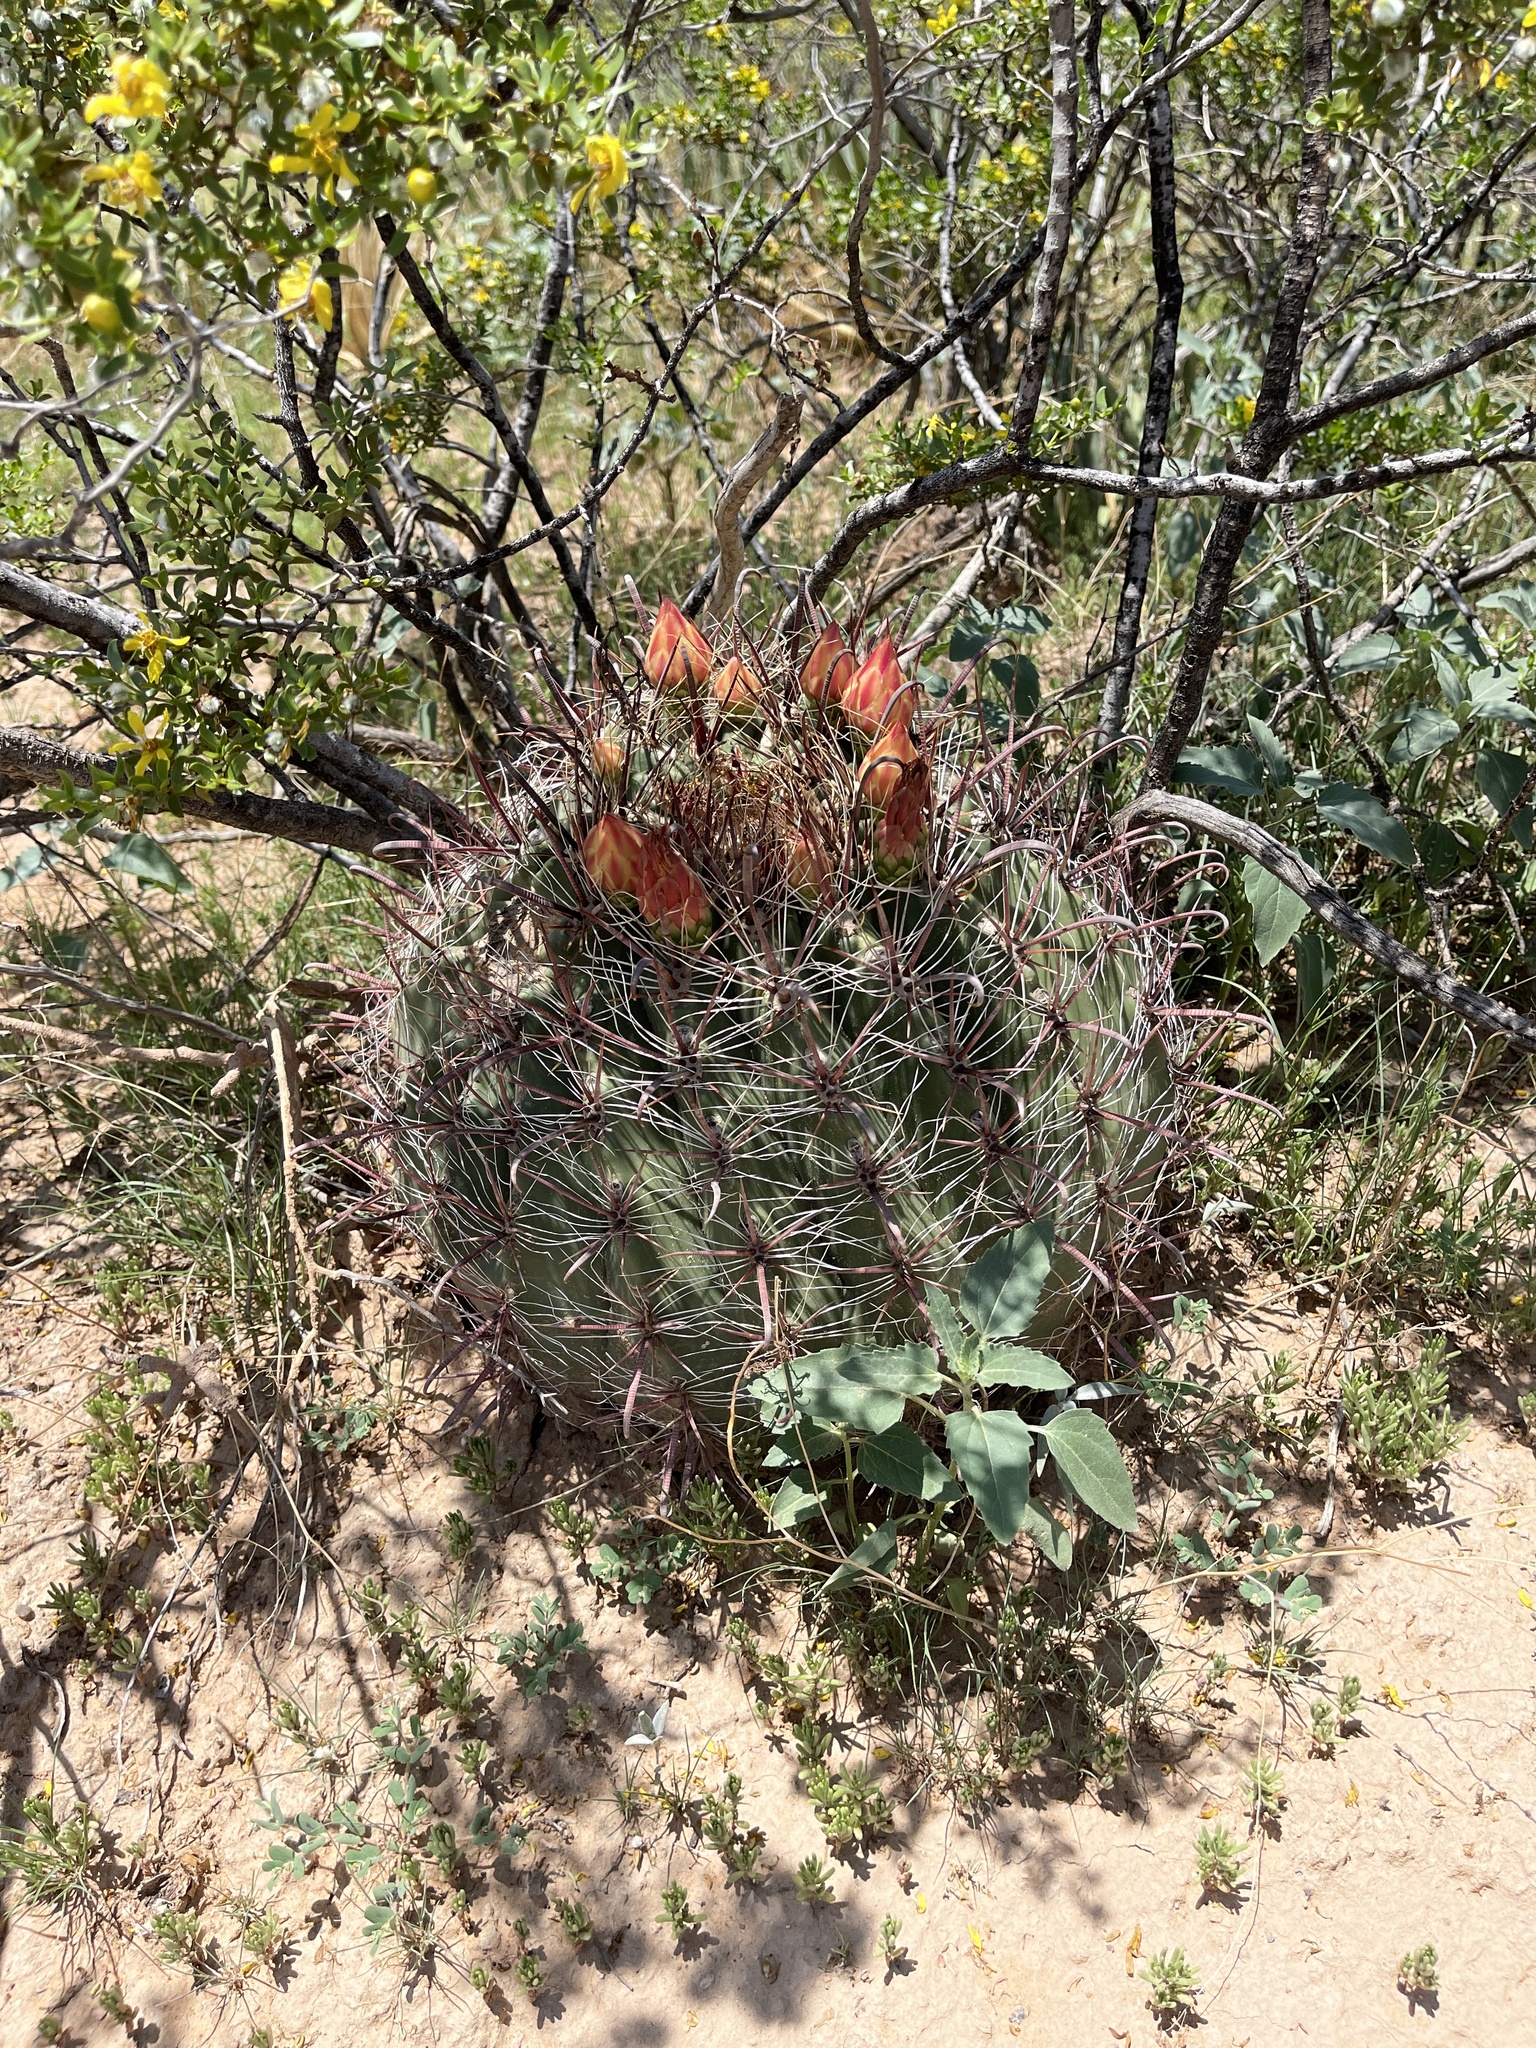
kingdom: Plantae
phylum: Tracheophyta
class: Magnoliopsida
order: Caryophyllales
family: Cactaceae
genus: Ferocactus
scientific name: Ferocactus wislizeni
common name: Candy barrel cactus
